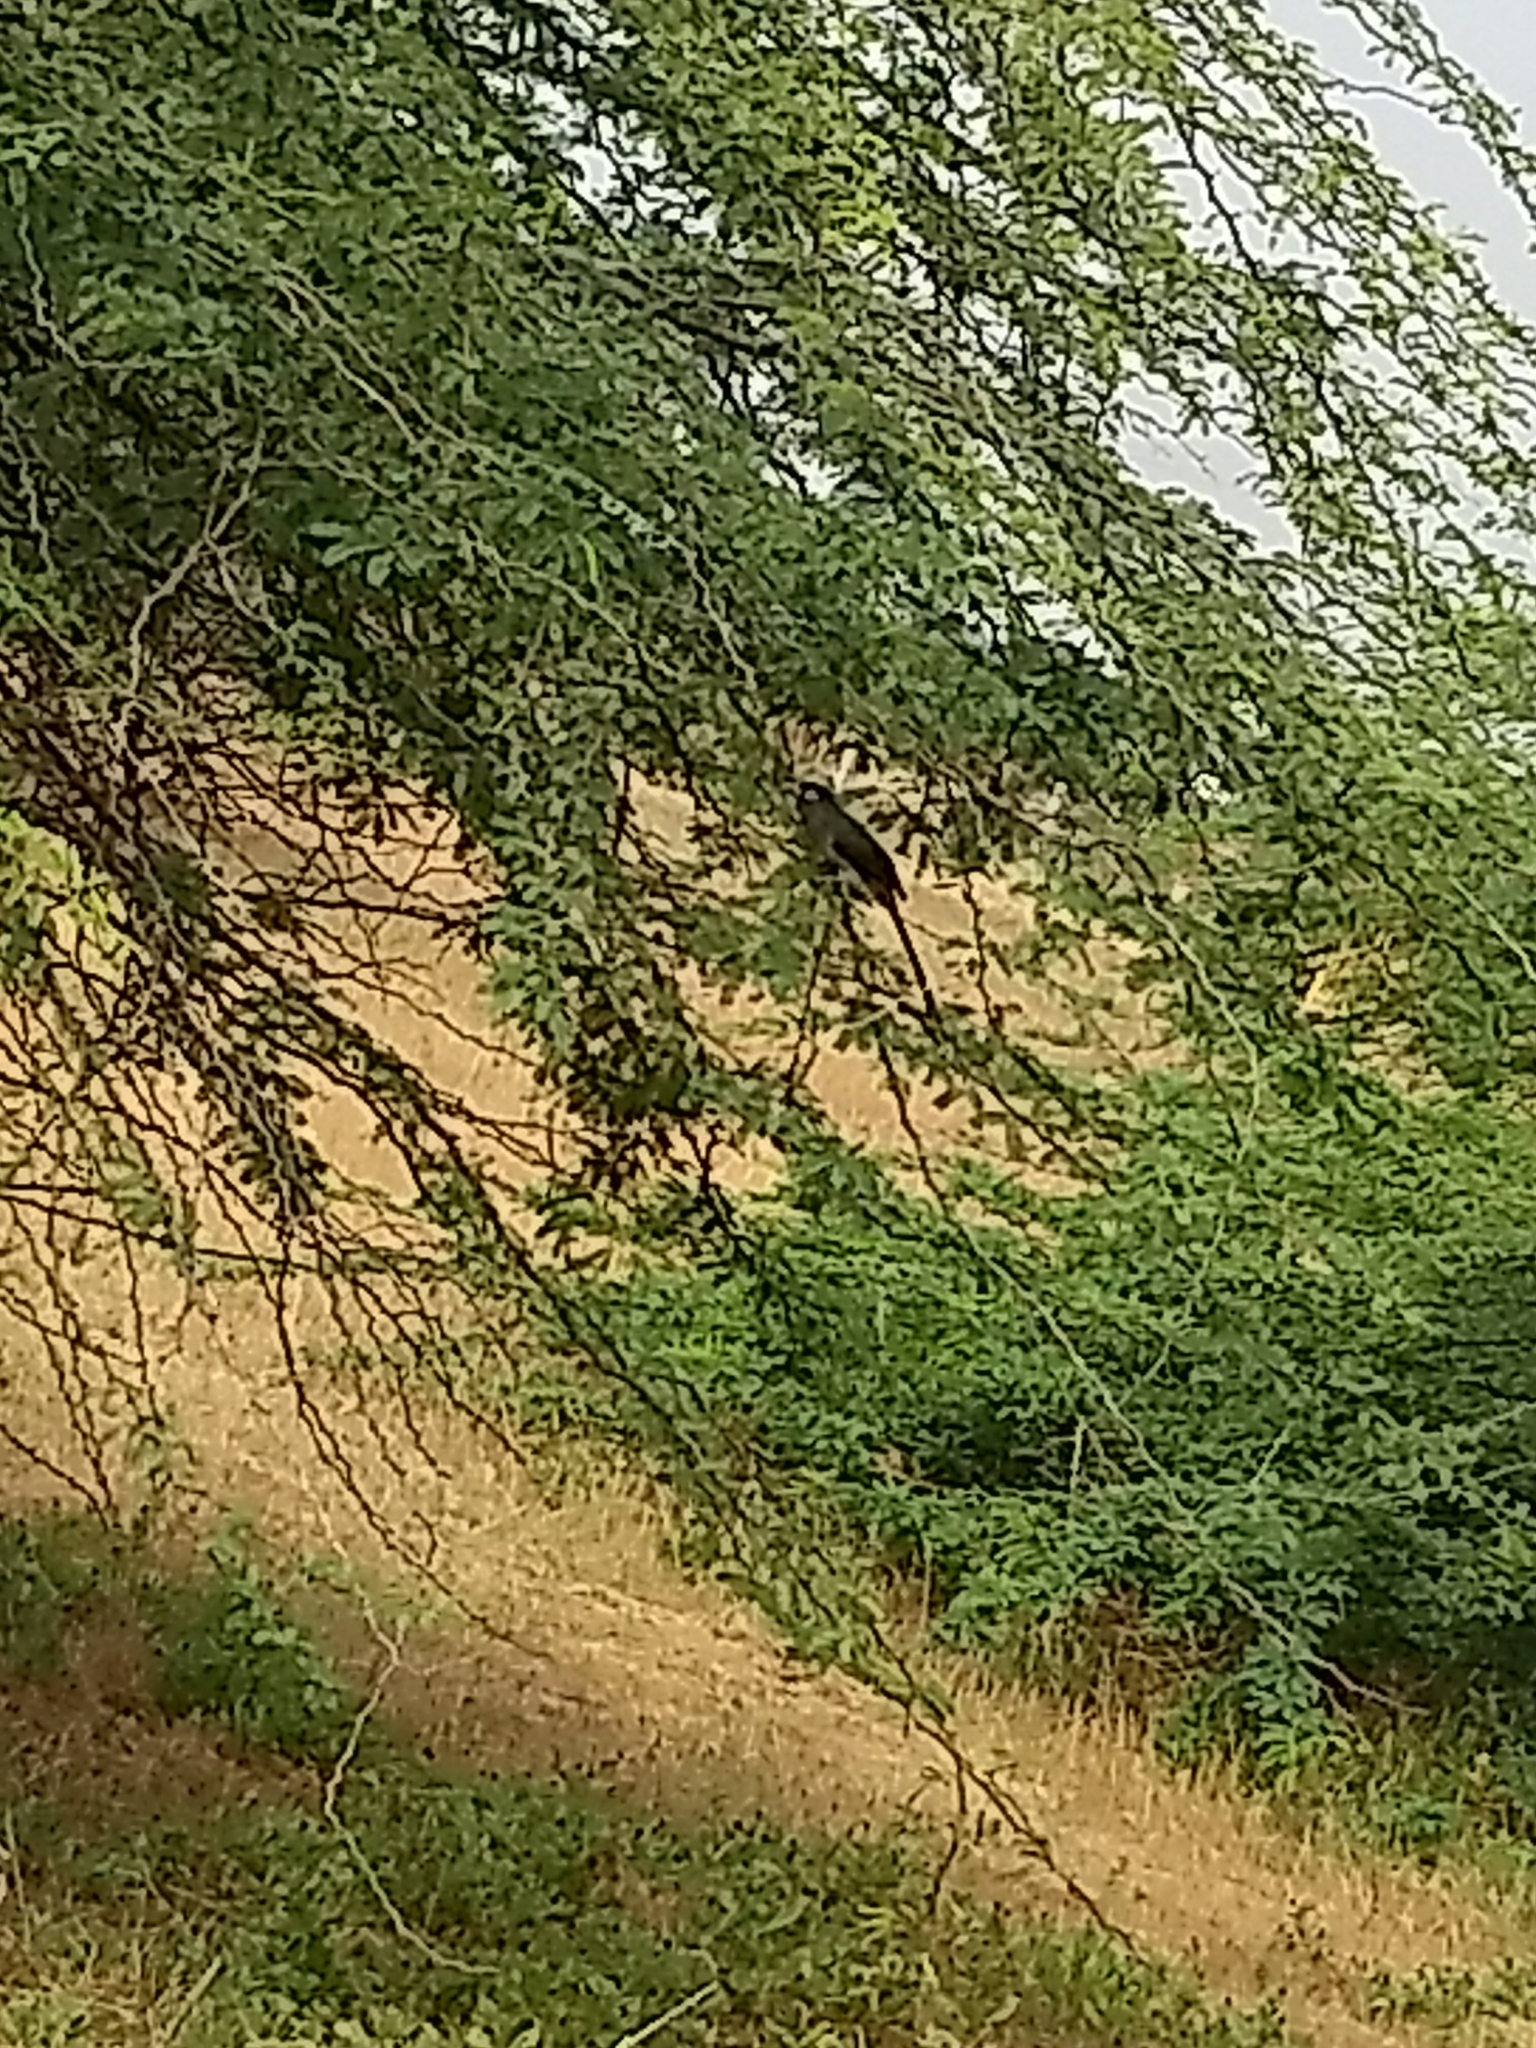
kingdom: Animalia
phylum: Chordata
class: Aves
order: Cuculiformes
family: Cuculidae
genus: Rhopodytes
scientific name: Rhopodytes viridirostris
